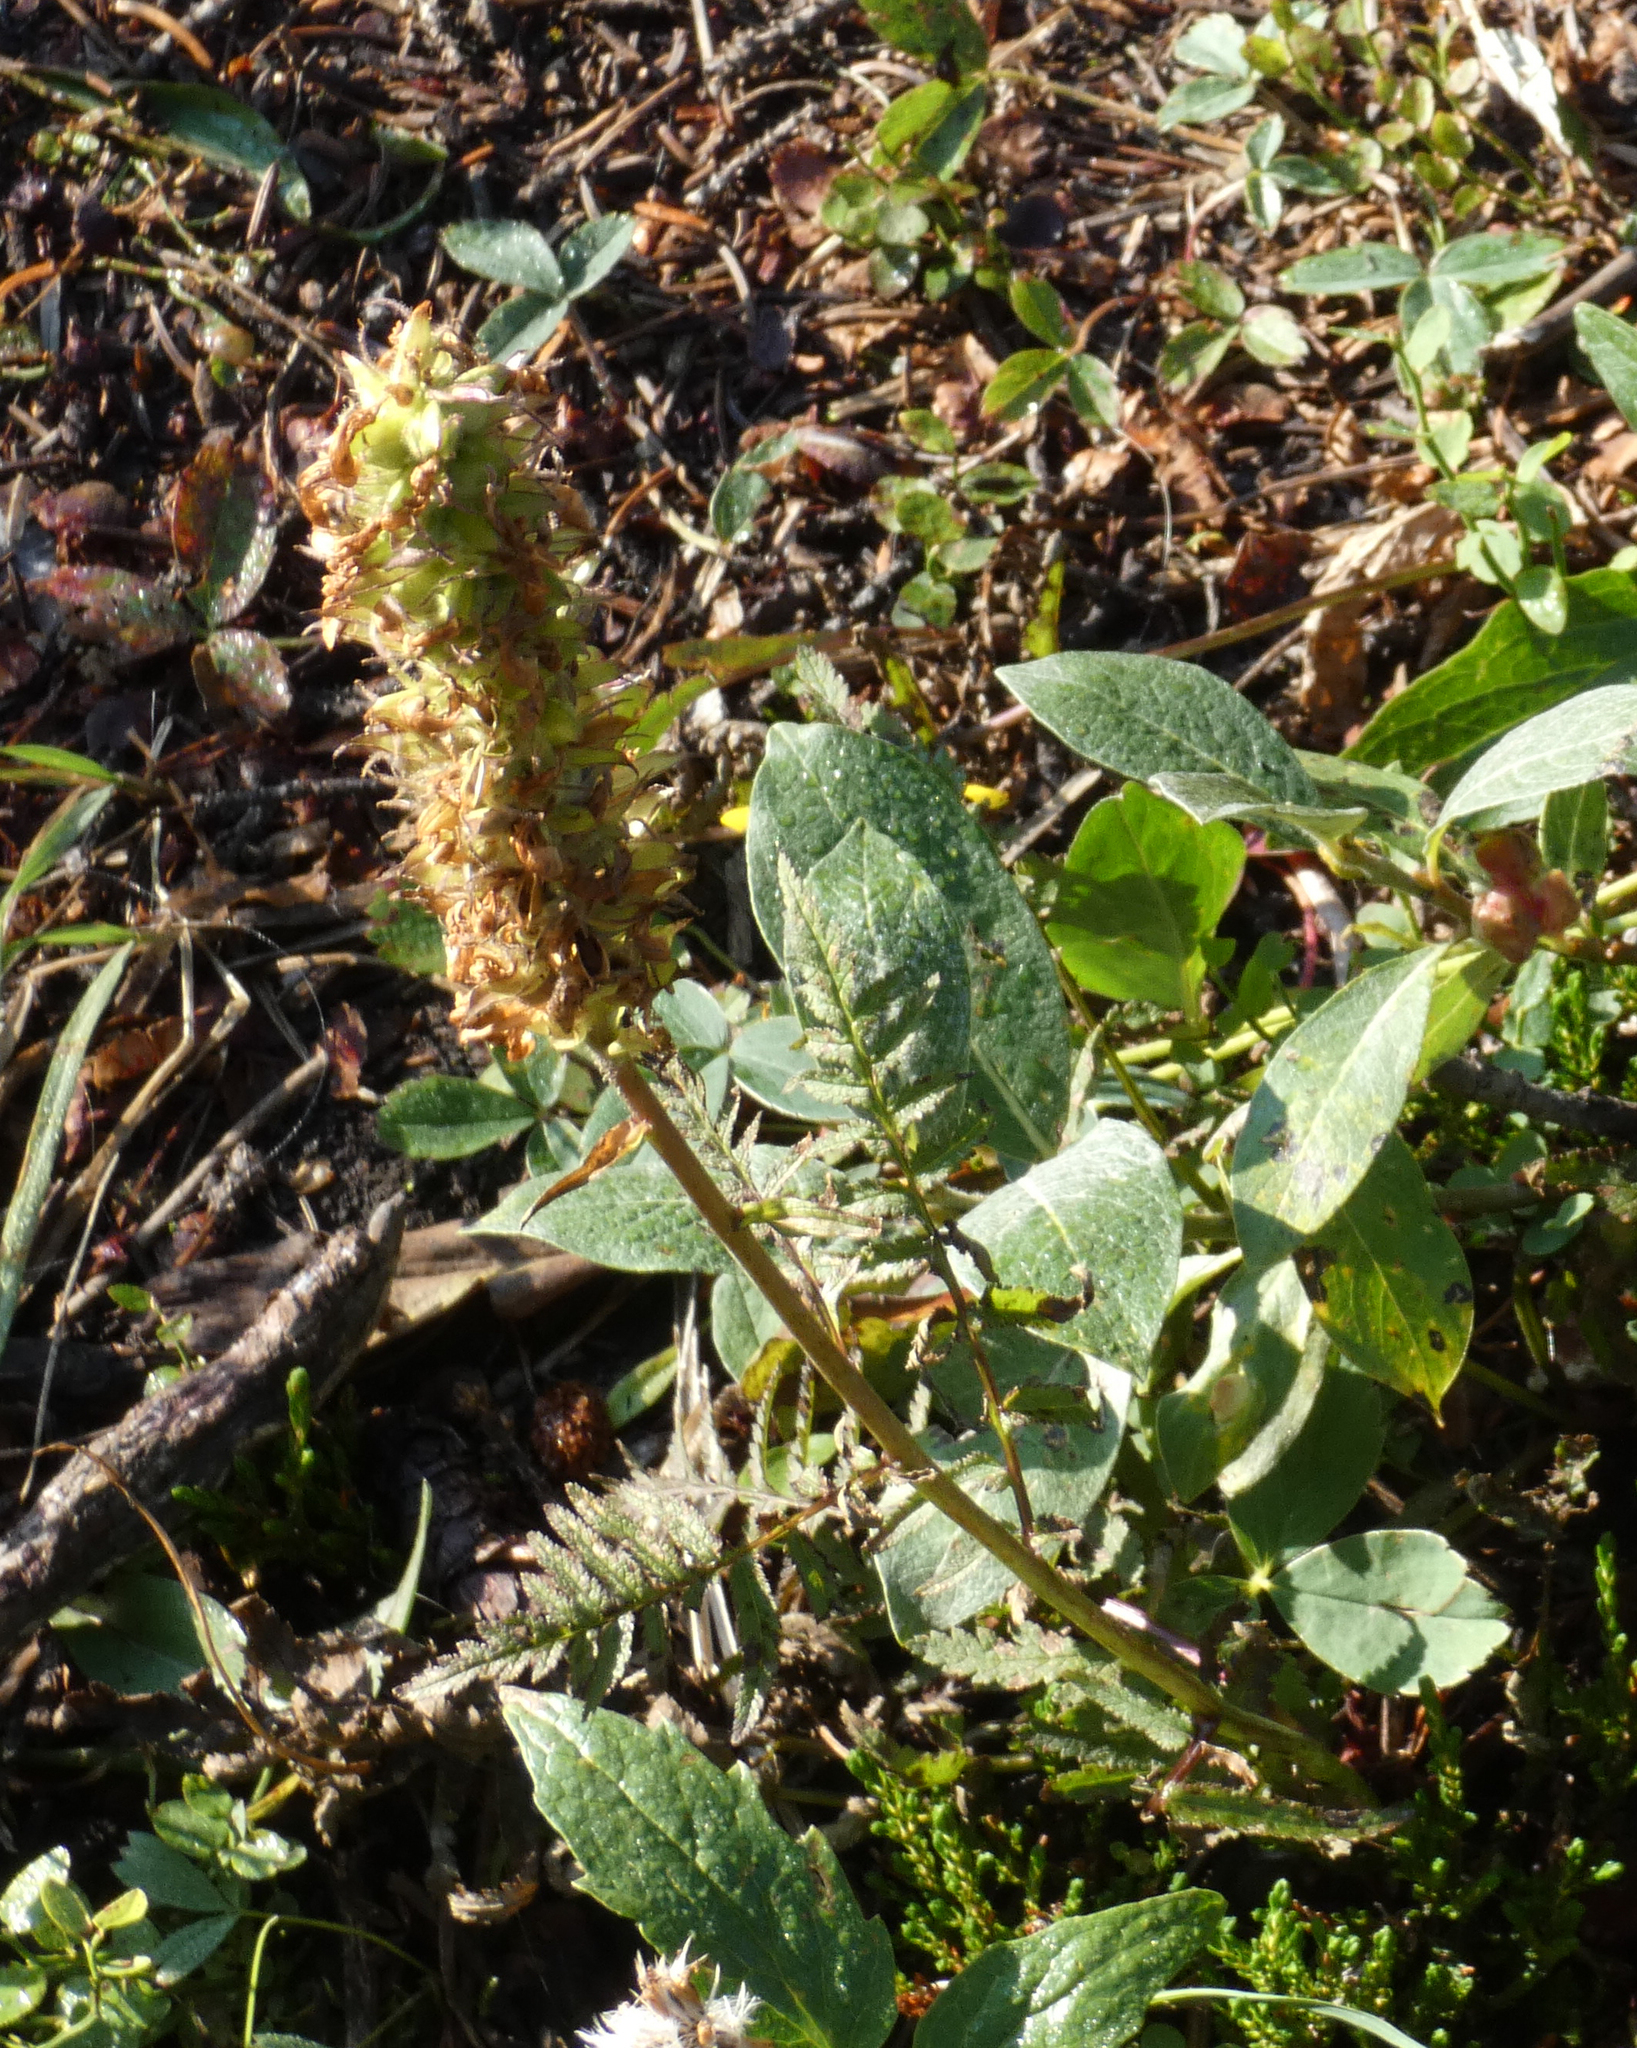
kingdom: Plantae
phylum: Tracheophyta
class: Magnoliopsida
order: Lamiales
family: Orobanchaceae
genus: Pedicularis
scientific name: Pedicularis bracteosa
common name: Bracted lousewort
